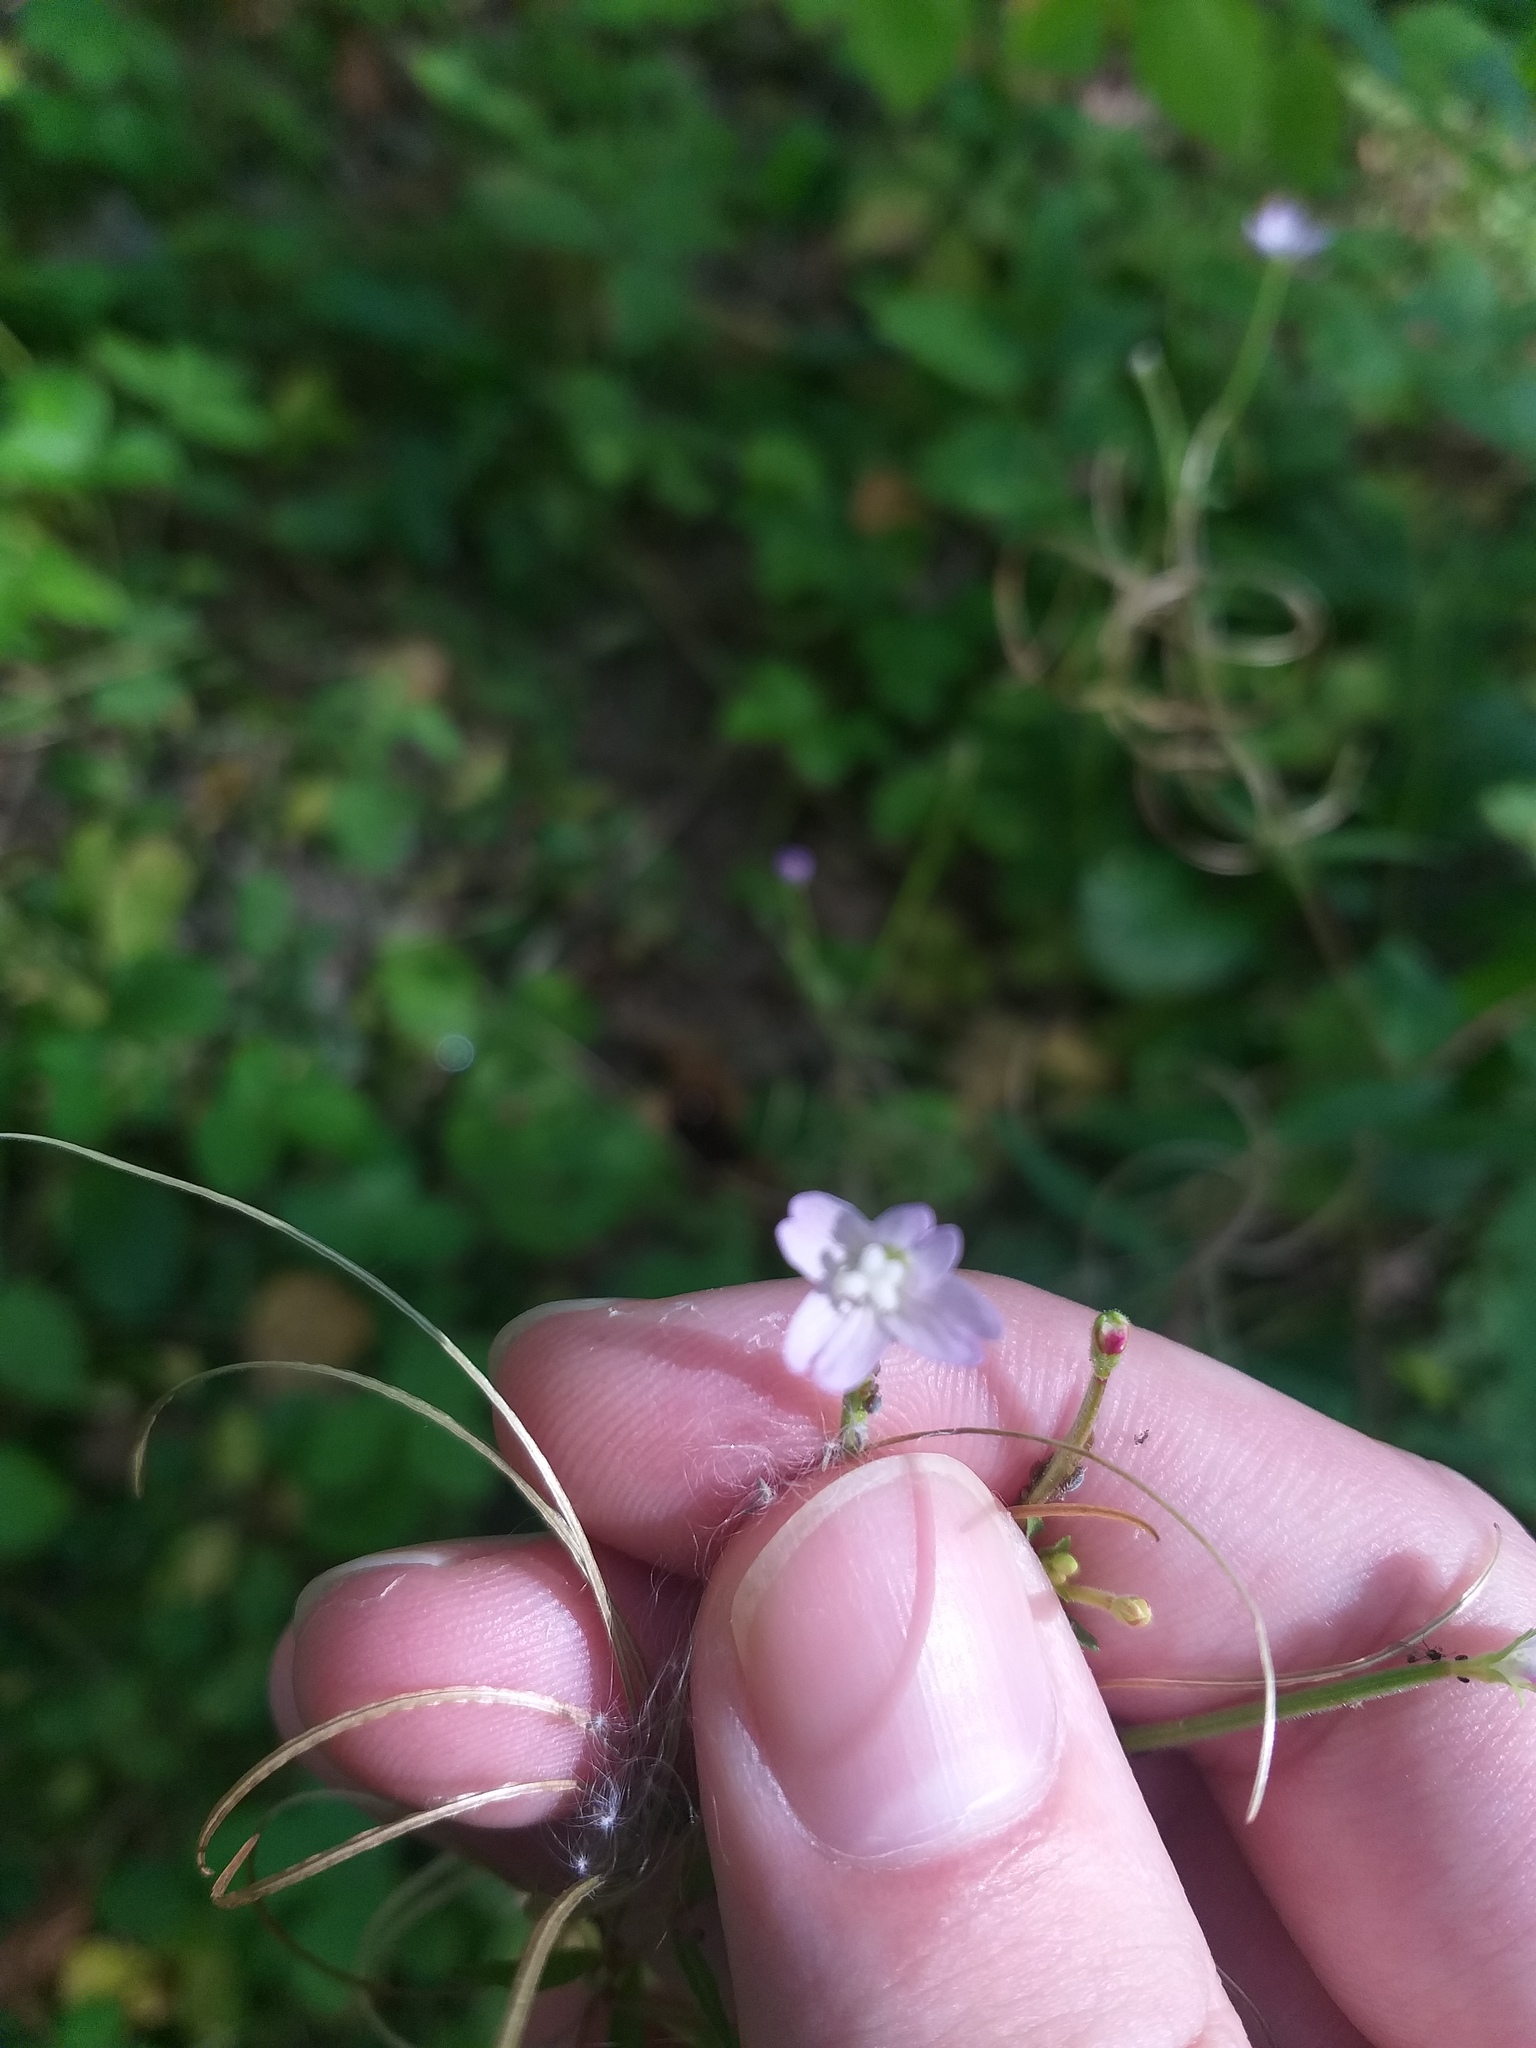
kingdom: Plantae
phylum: Tracheophyta
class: Magnoliopsida
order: Myrtales
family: Onagraceae
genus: Epilobium
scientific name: Epilobium montanum
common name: Broad-leaved willowherb
